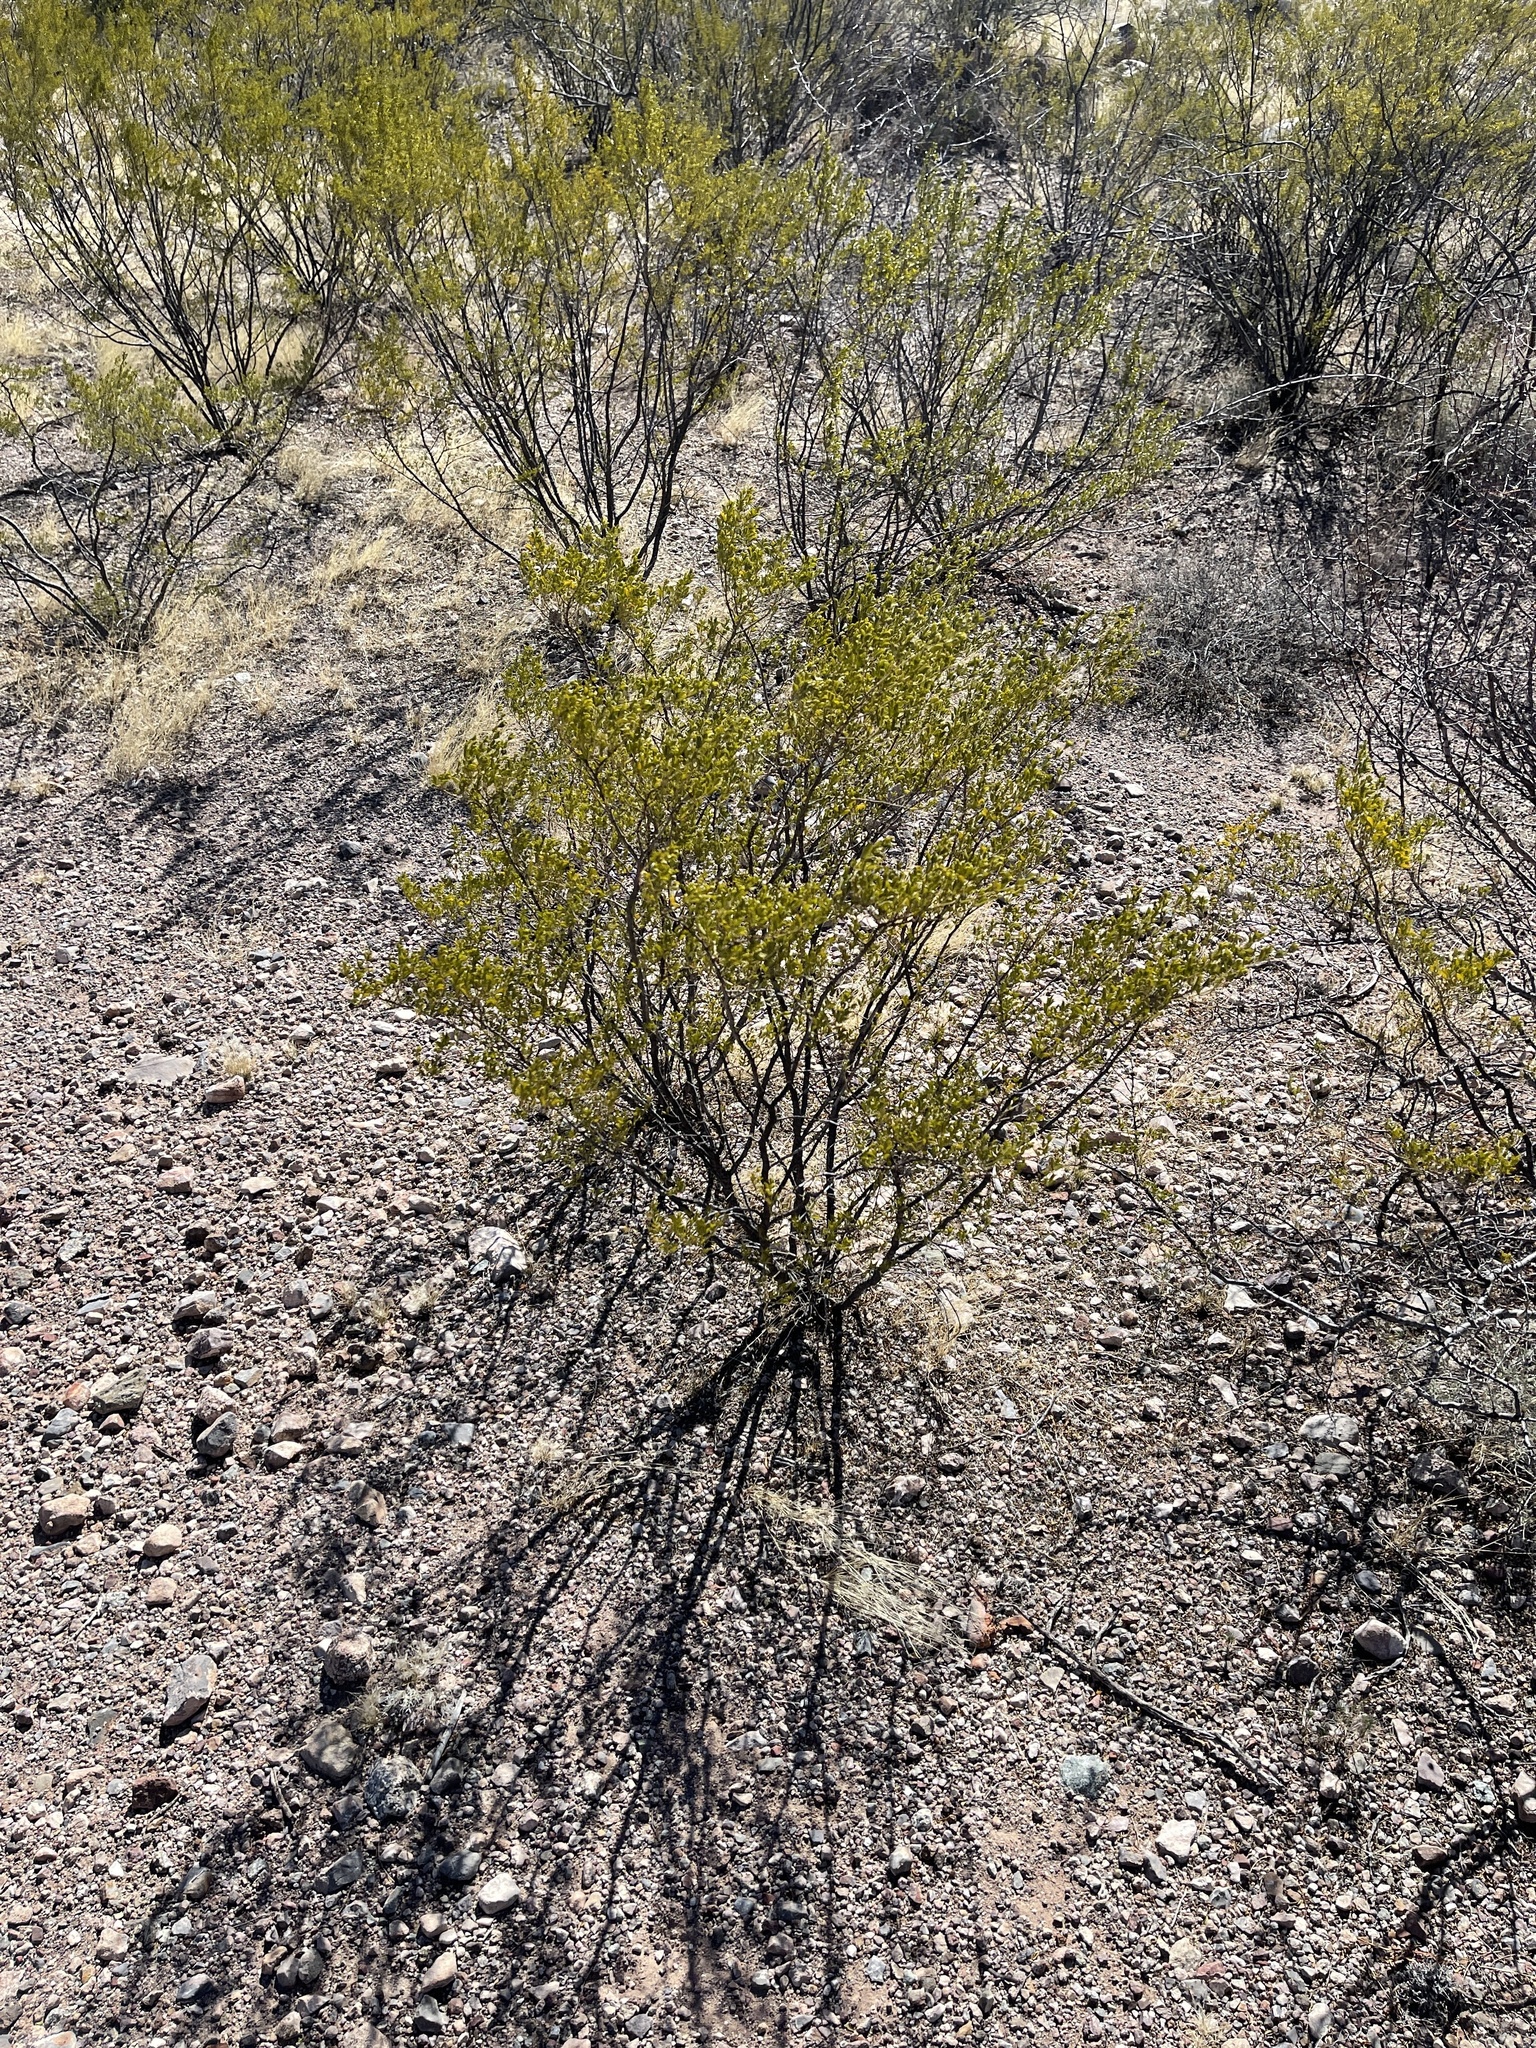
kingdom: Plantae
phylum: Tracheophyta
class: Magnoliopsida
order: Zygophyllales
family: Zygophyllaceae
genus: Larrea
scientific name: Larrea tridentata
